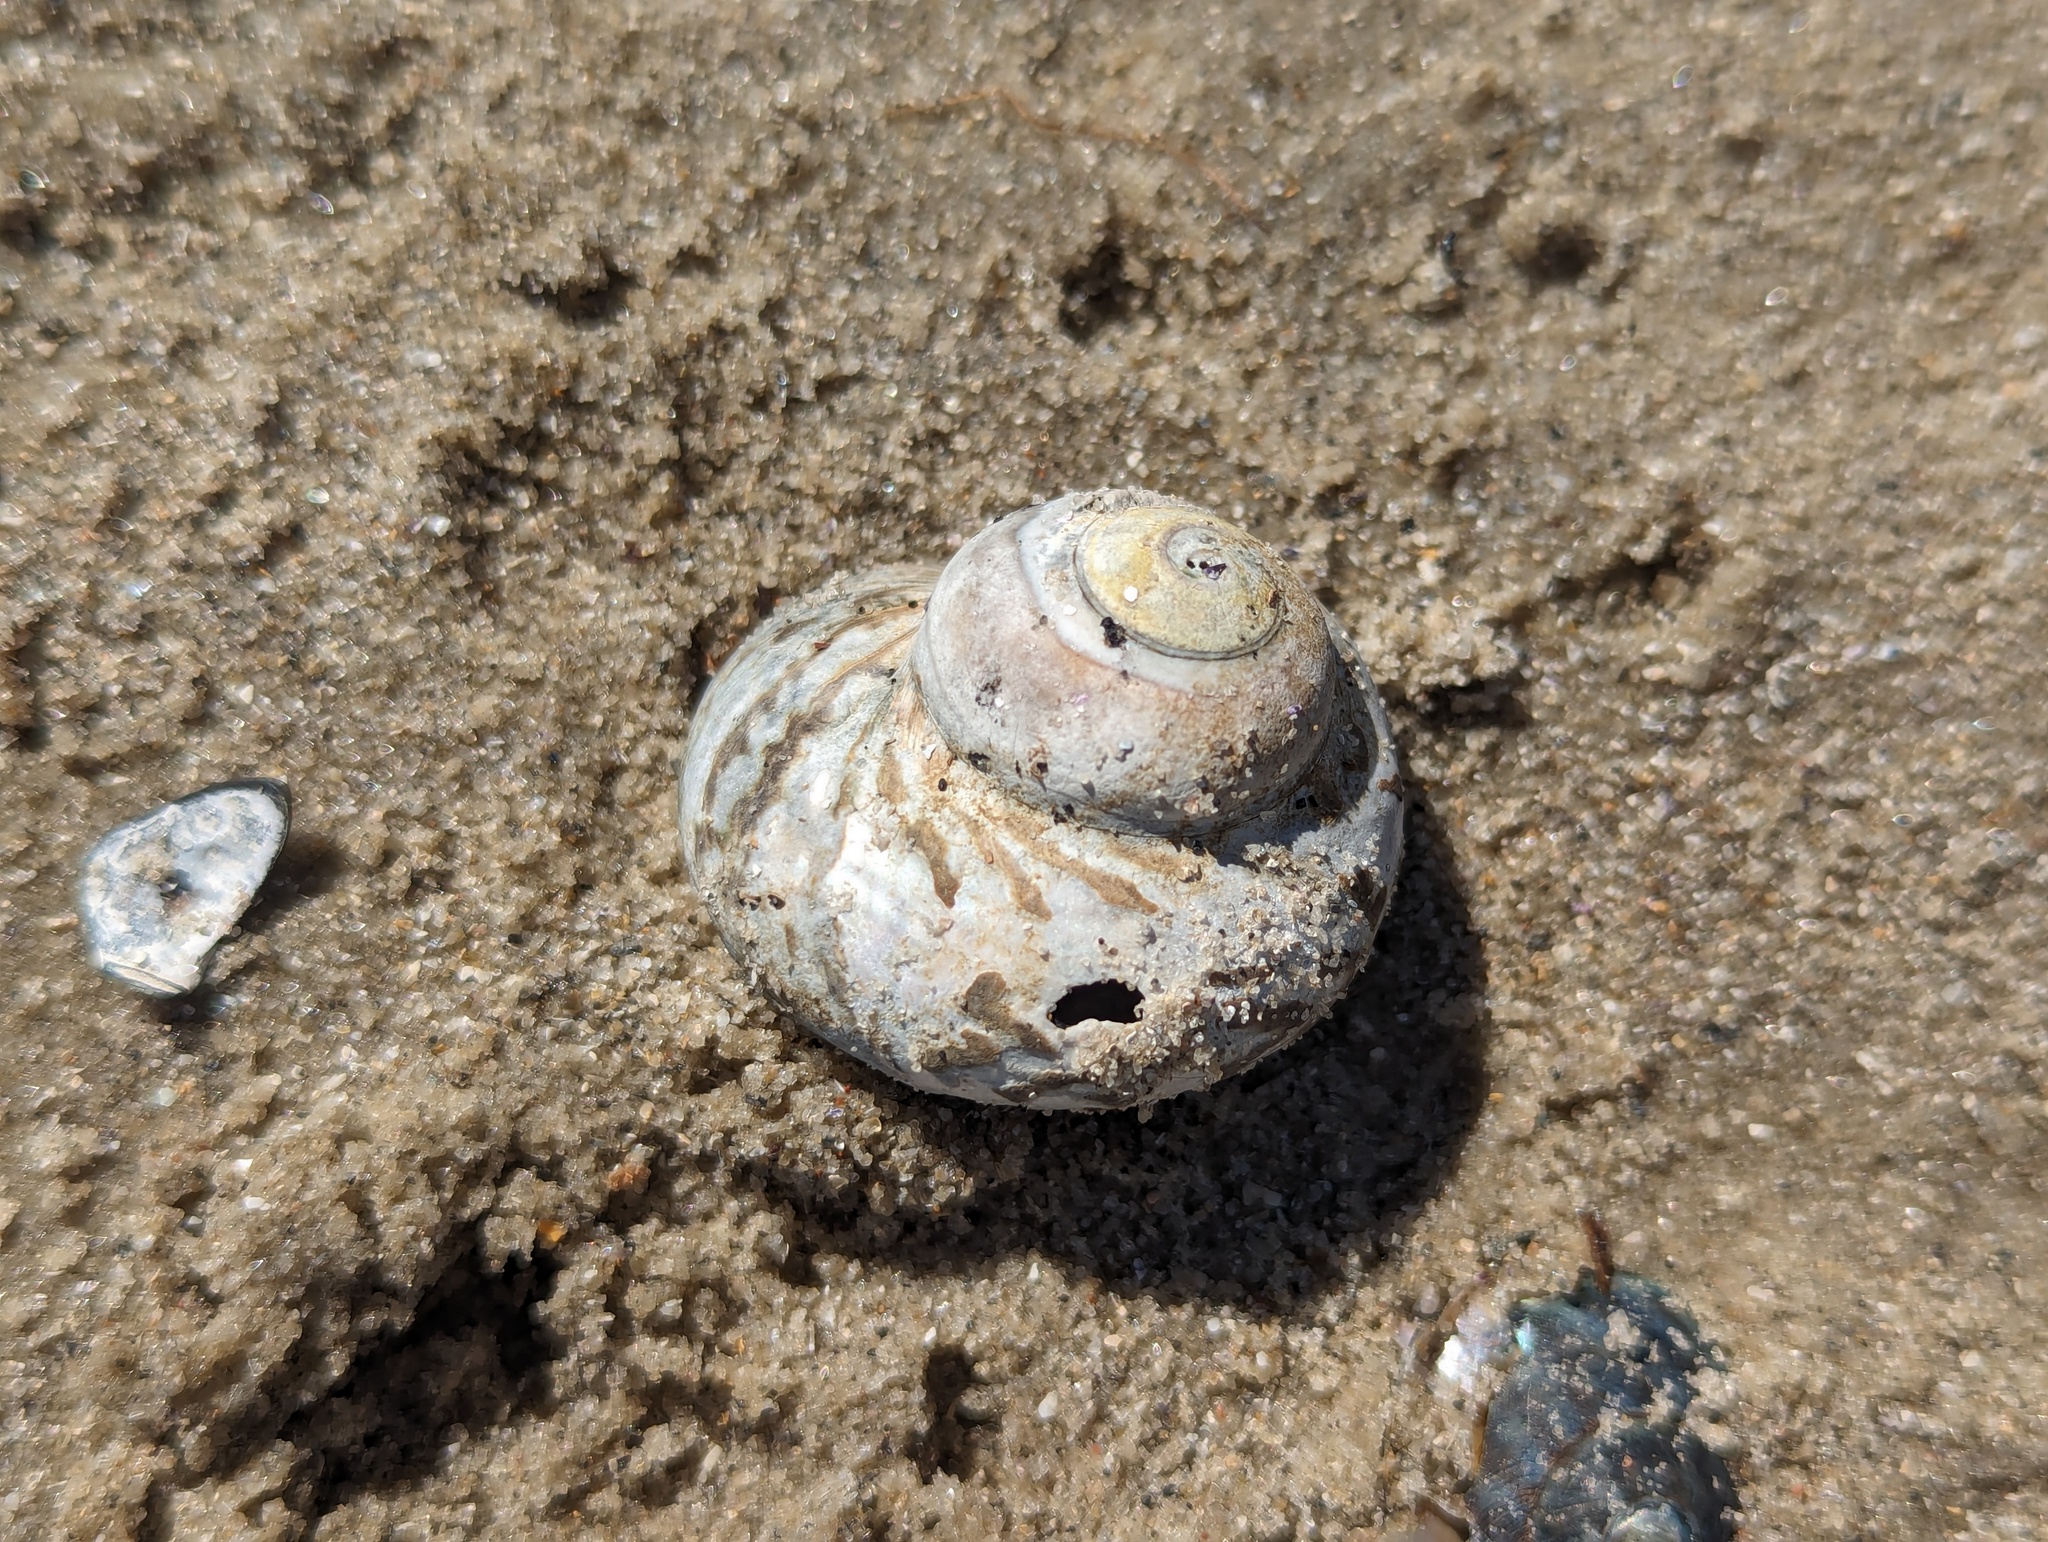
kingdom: Animalia
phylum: Mollusca
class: Gastropoda
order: Trochida
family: Turbinidae
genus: Lunella
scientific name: Lunella undulata
